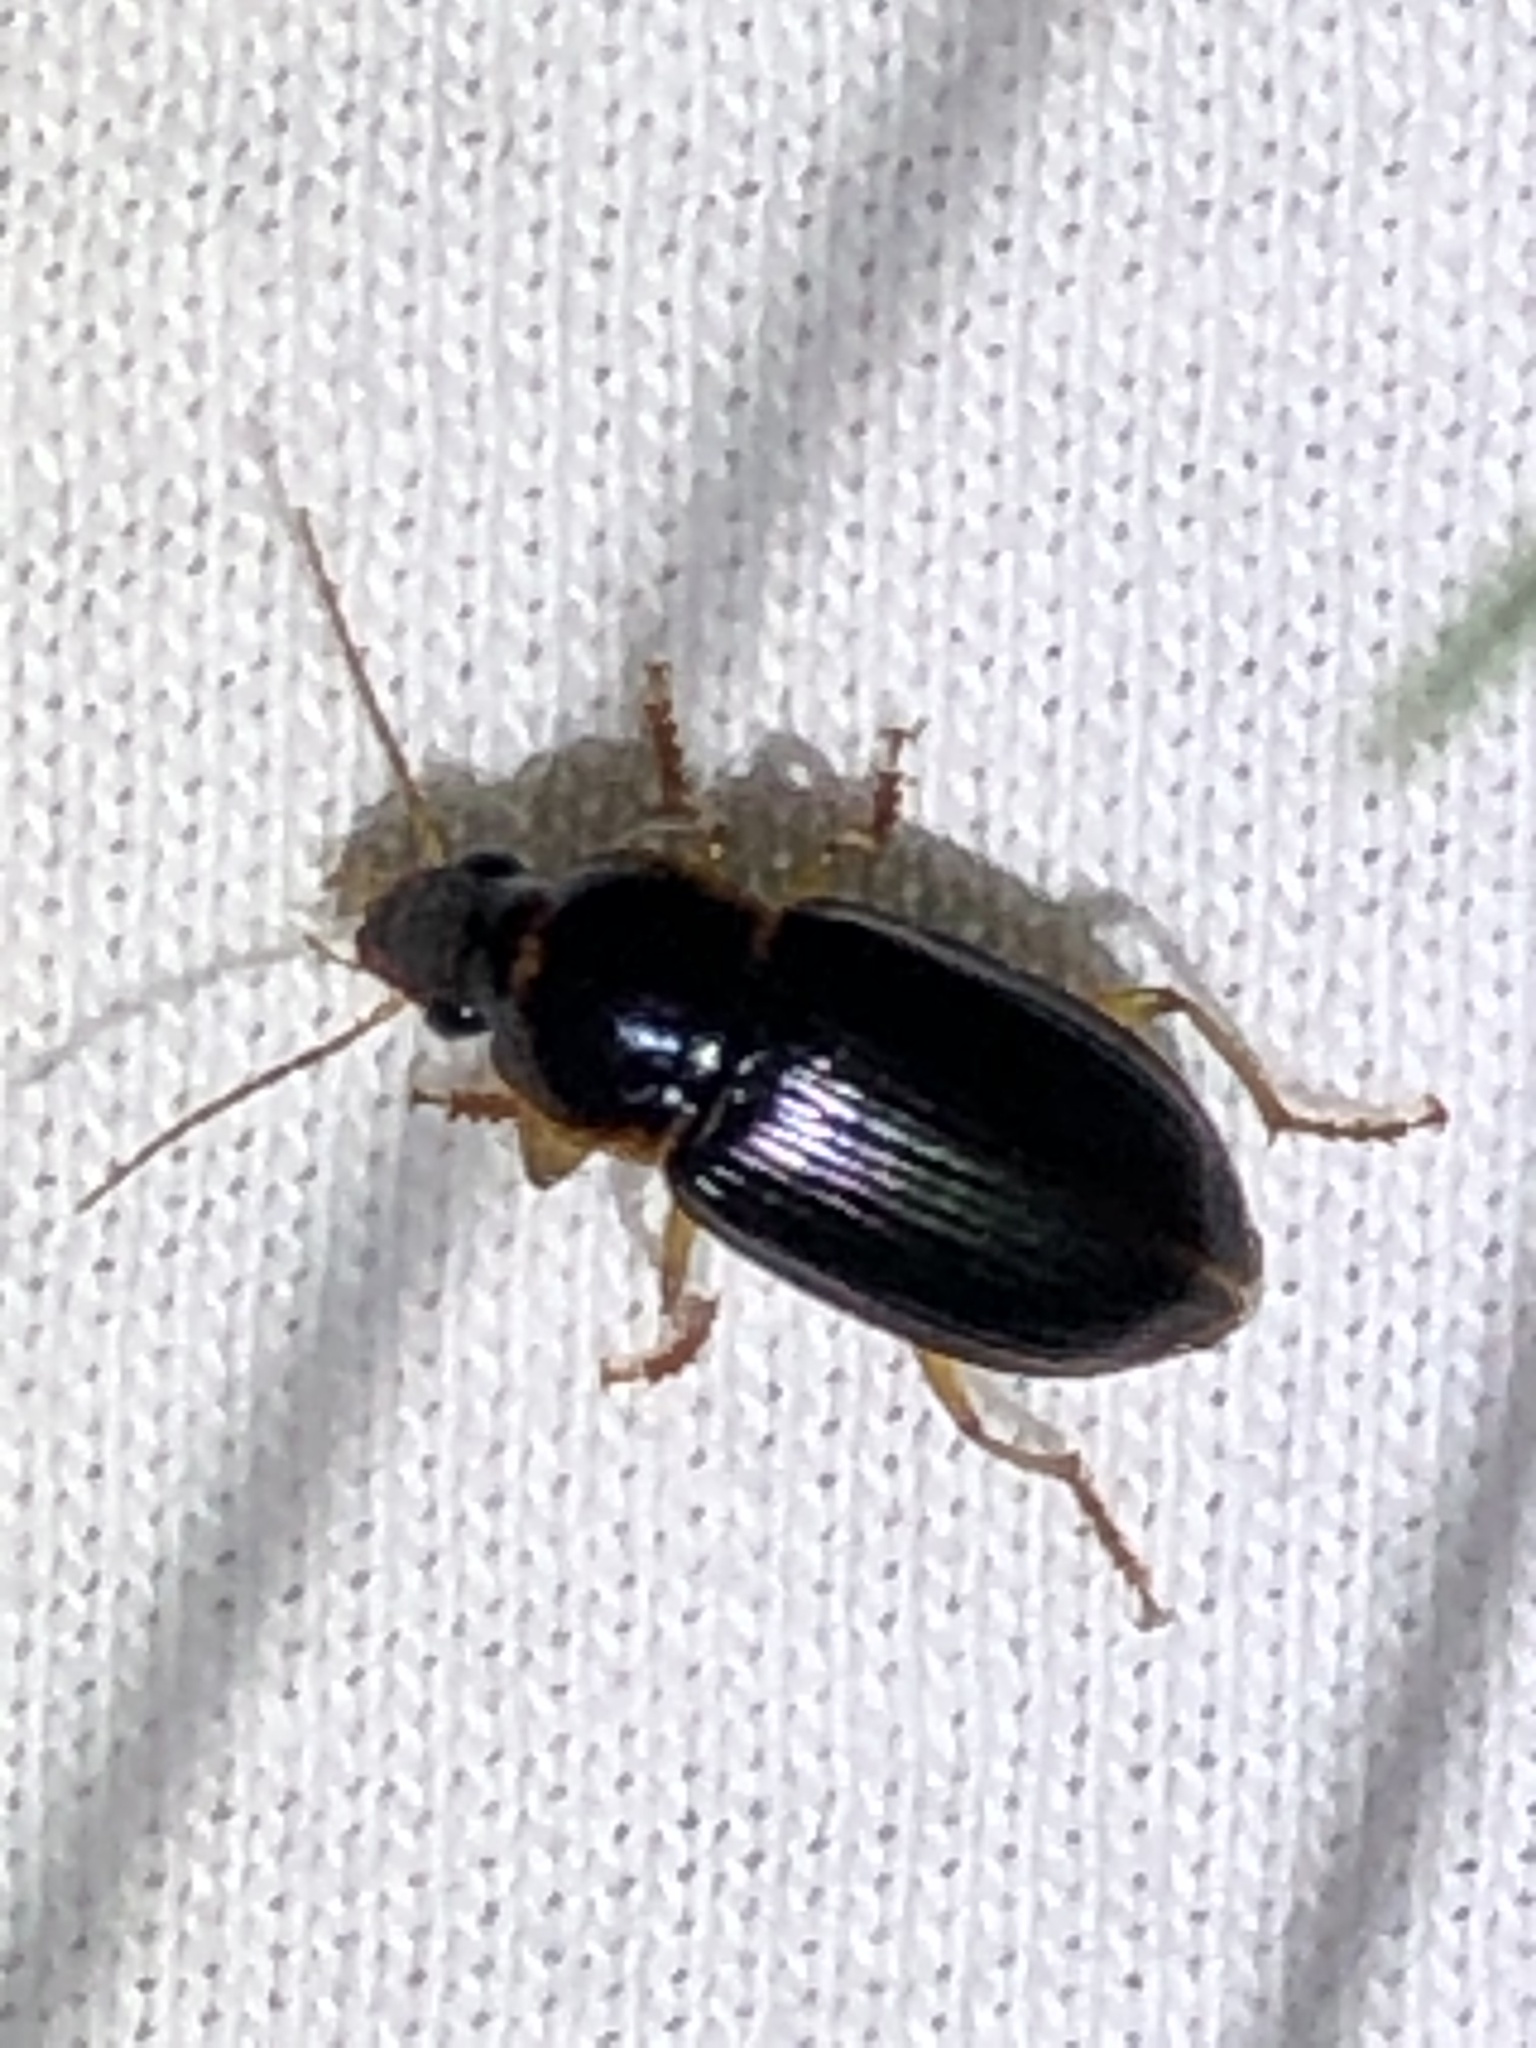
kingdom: Animalia
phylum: Arthropoda
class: Insecta
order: Coleoptera
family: Carabidae
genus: Notiobia
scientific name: Notiobia terminata
